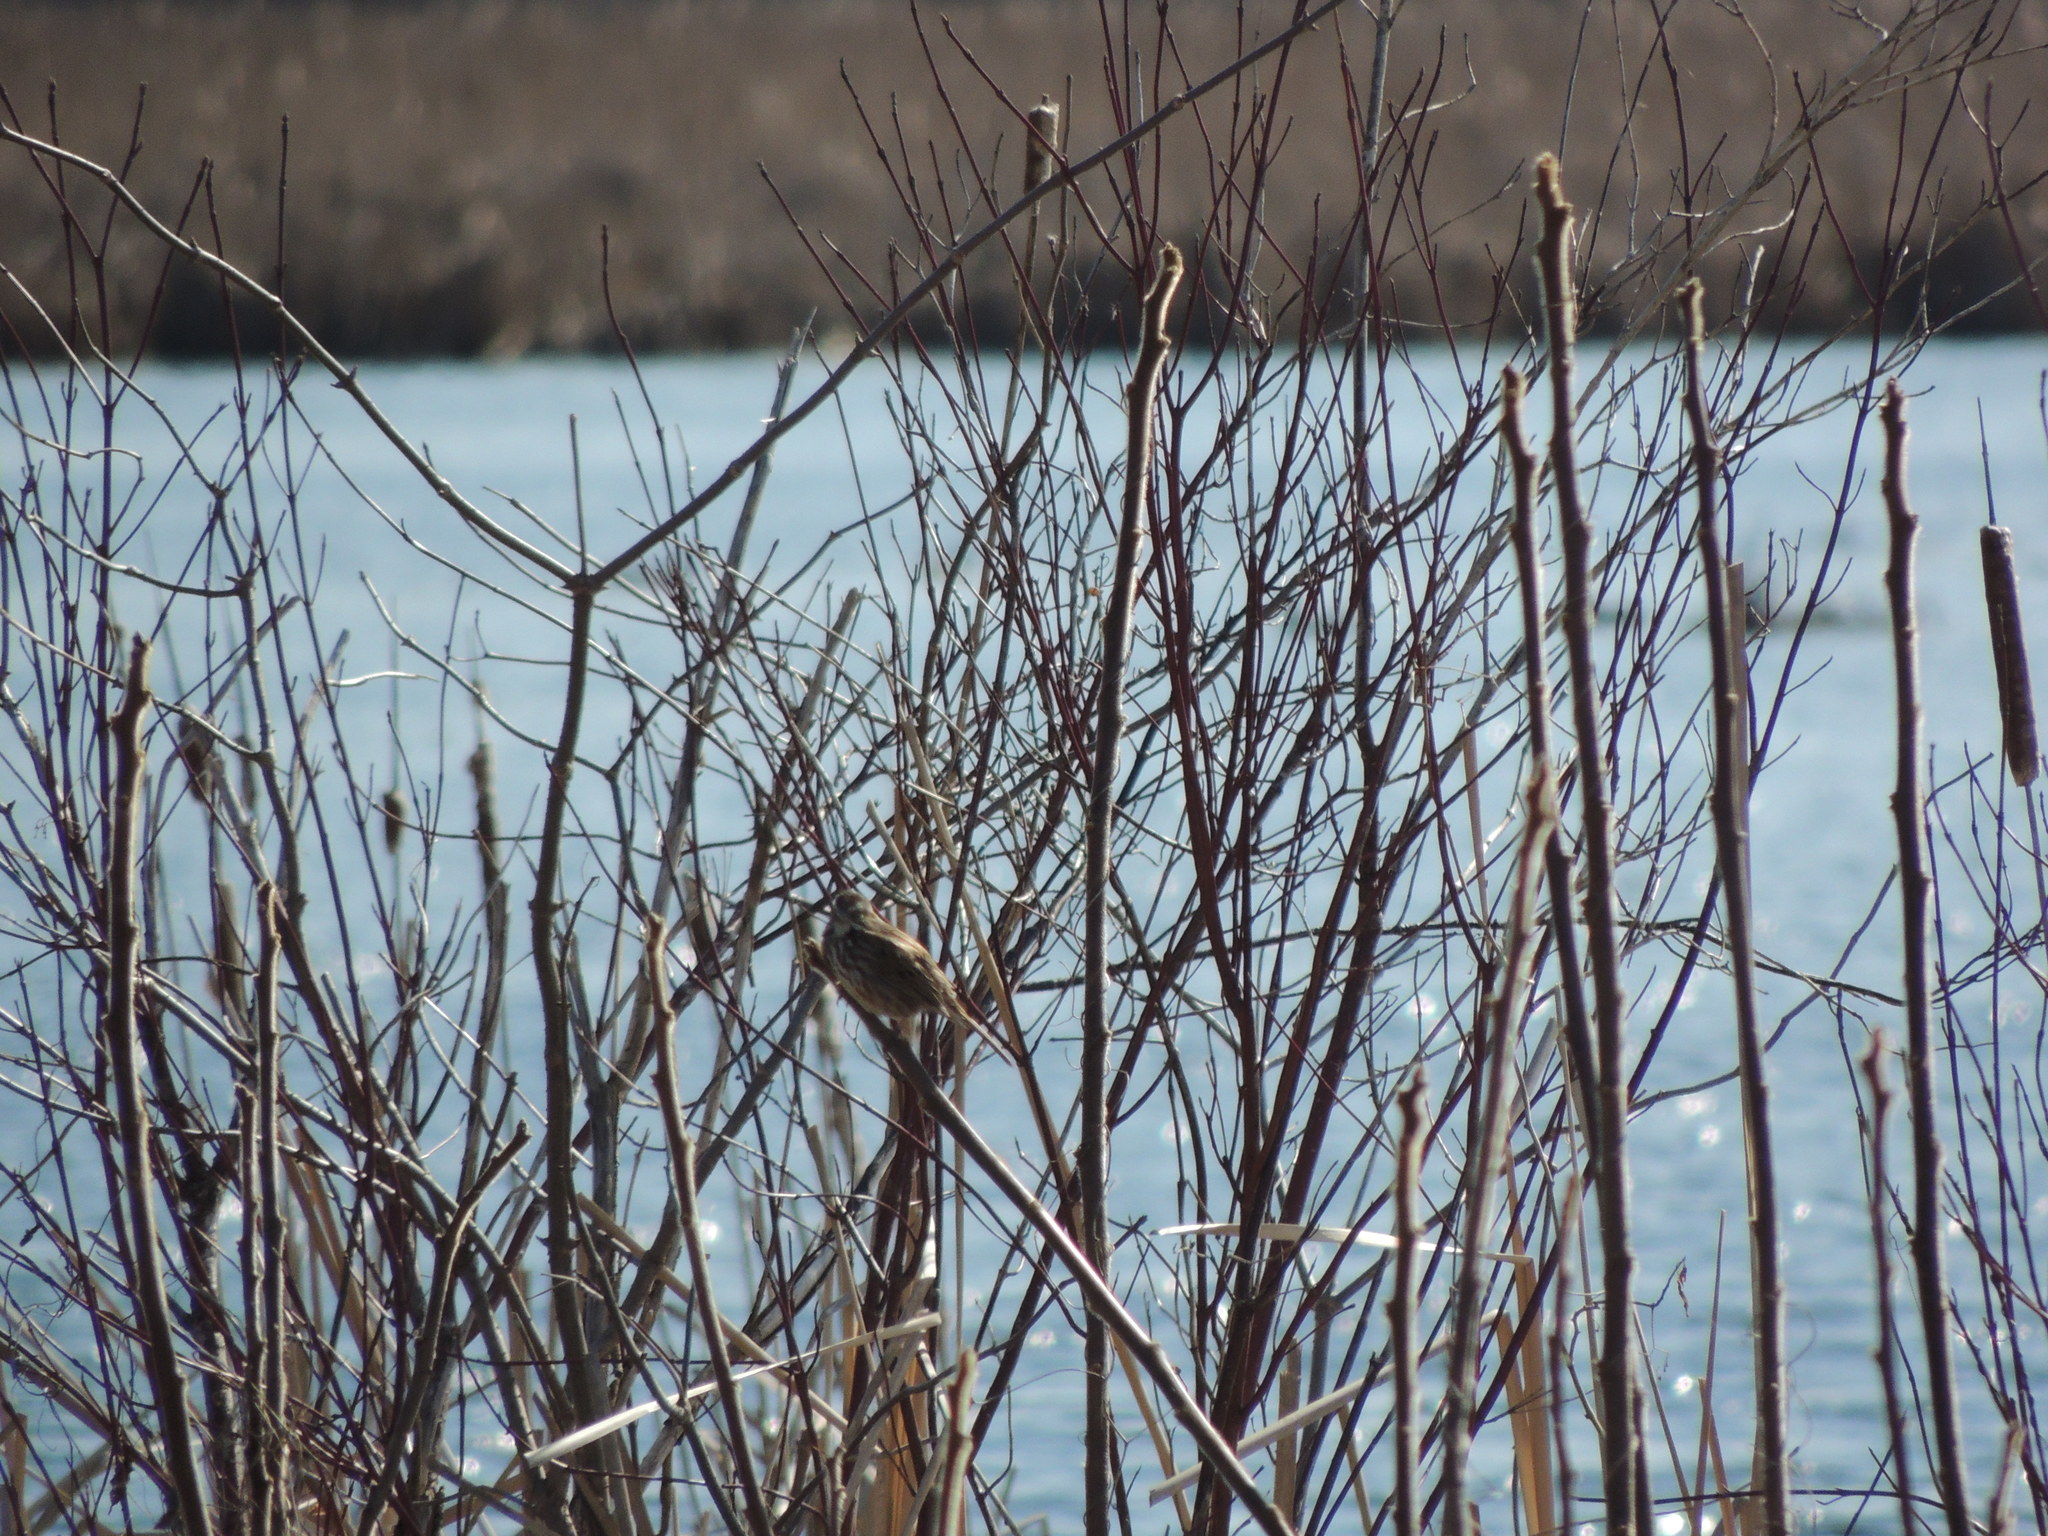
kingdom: Animalia
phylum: Chordata
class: Aves
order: Passeriformes
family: Passerellidae
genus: Melospiza
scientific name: Melospiza melodia
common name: Song sparrow
